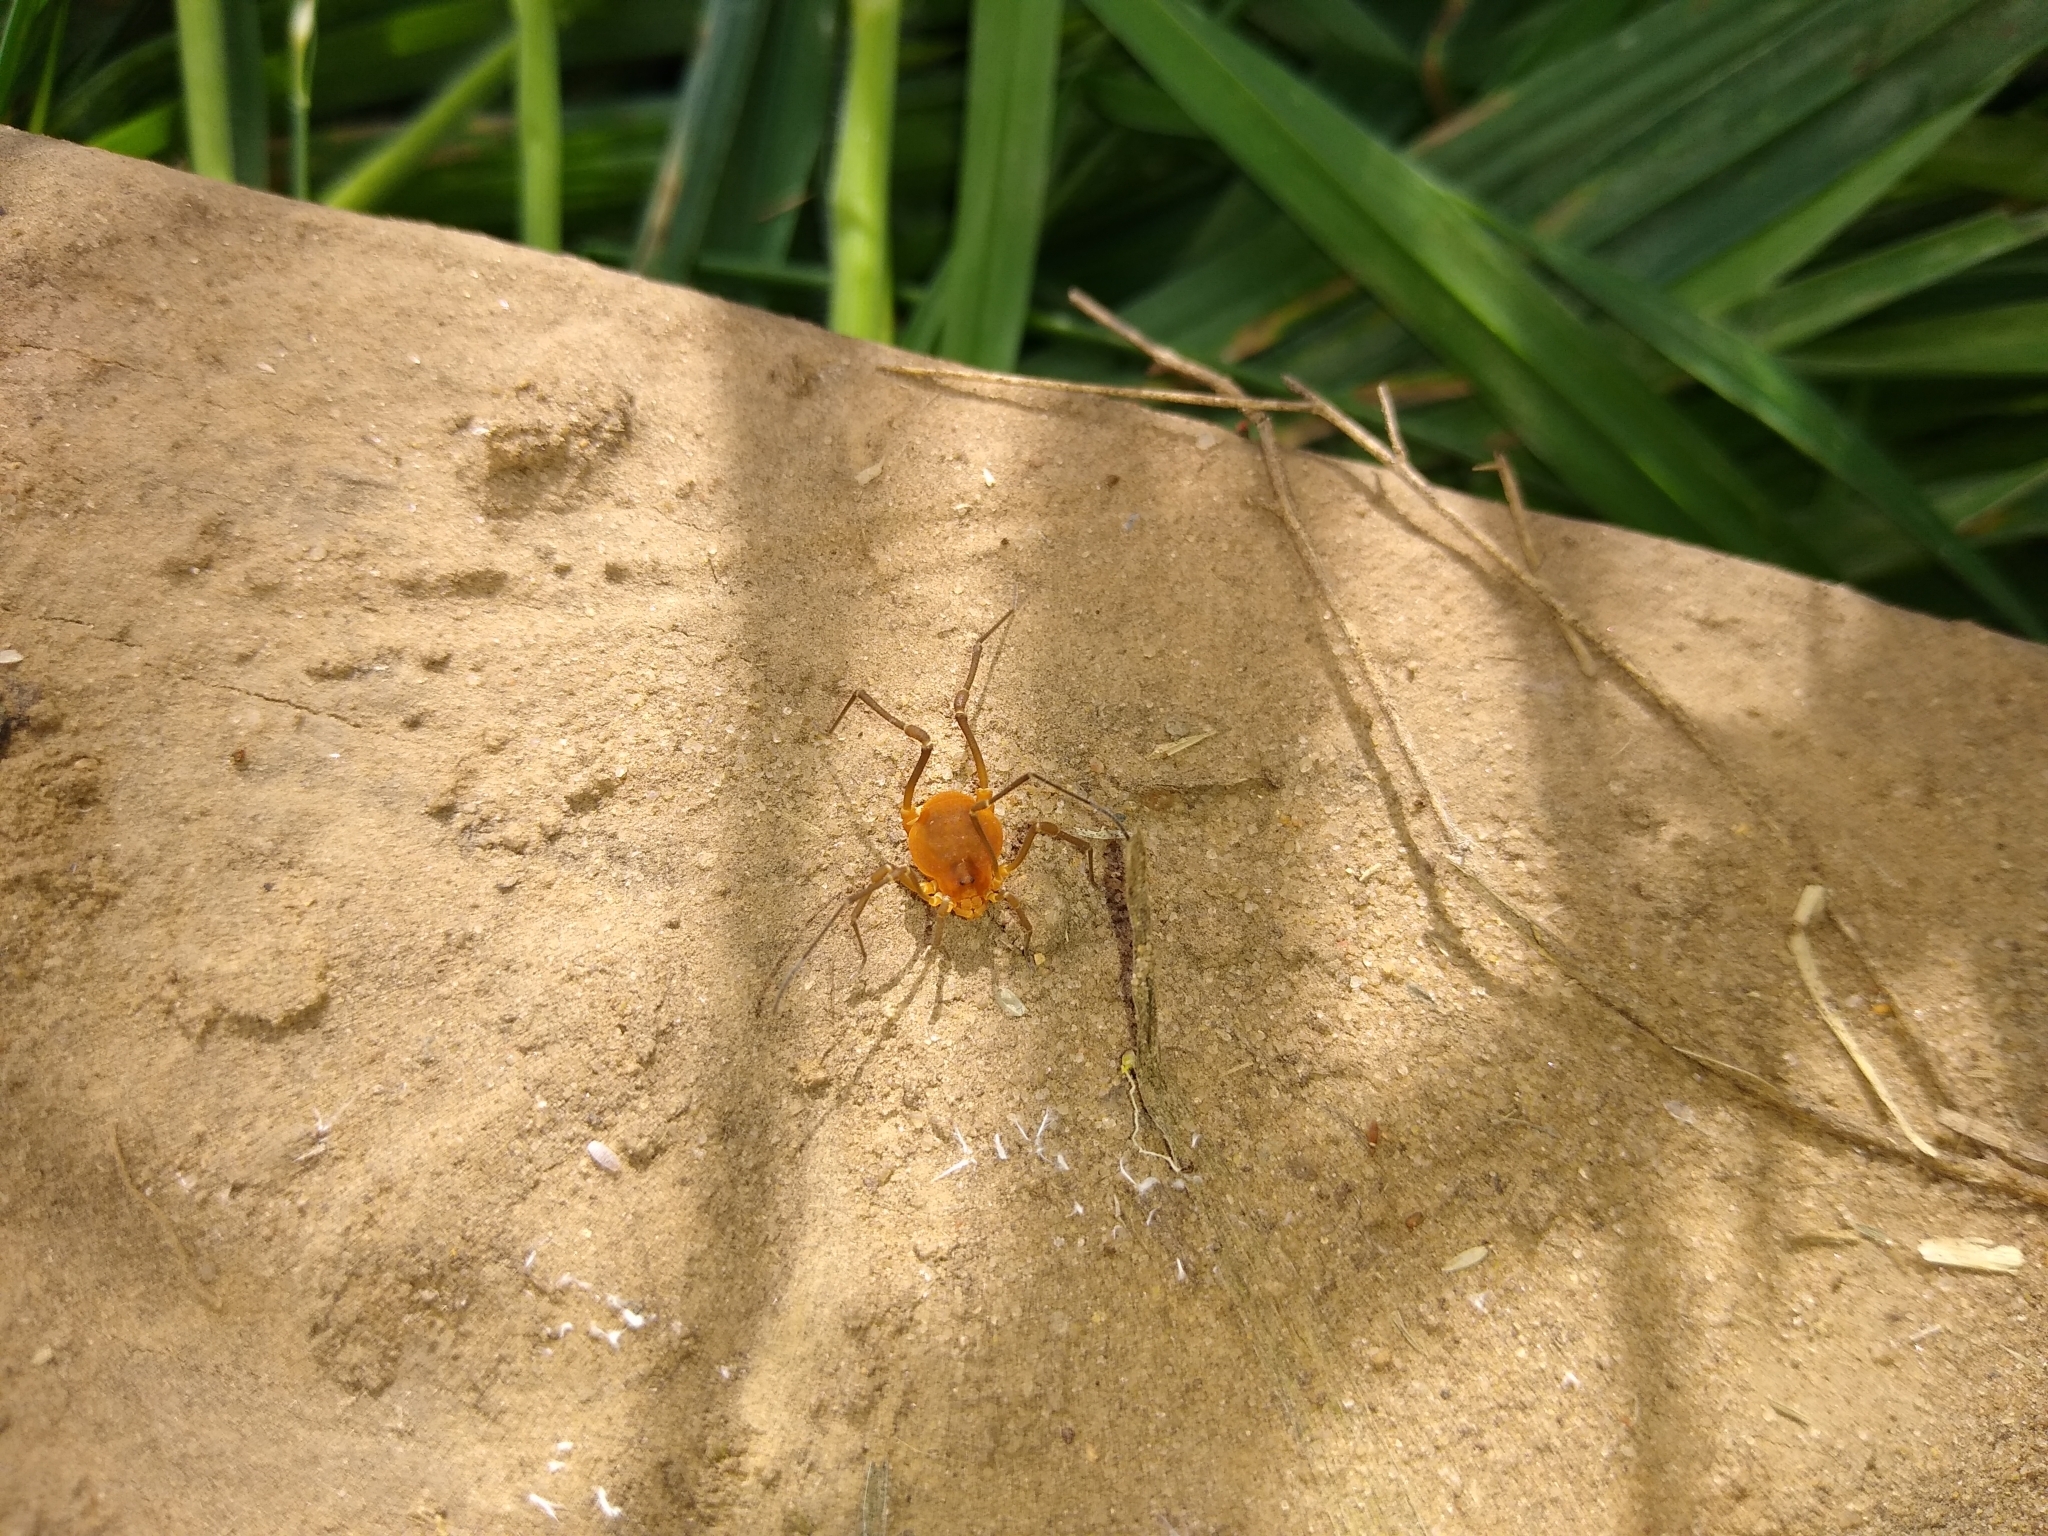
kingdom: Animalia
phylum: Arthropoda
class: Arachnida
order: Opiliones
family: Cosmetidae
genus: Libitioides
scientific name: Libitioides sayi
